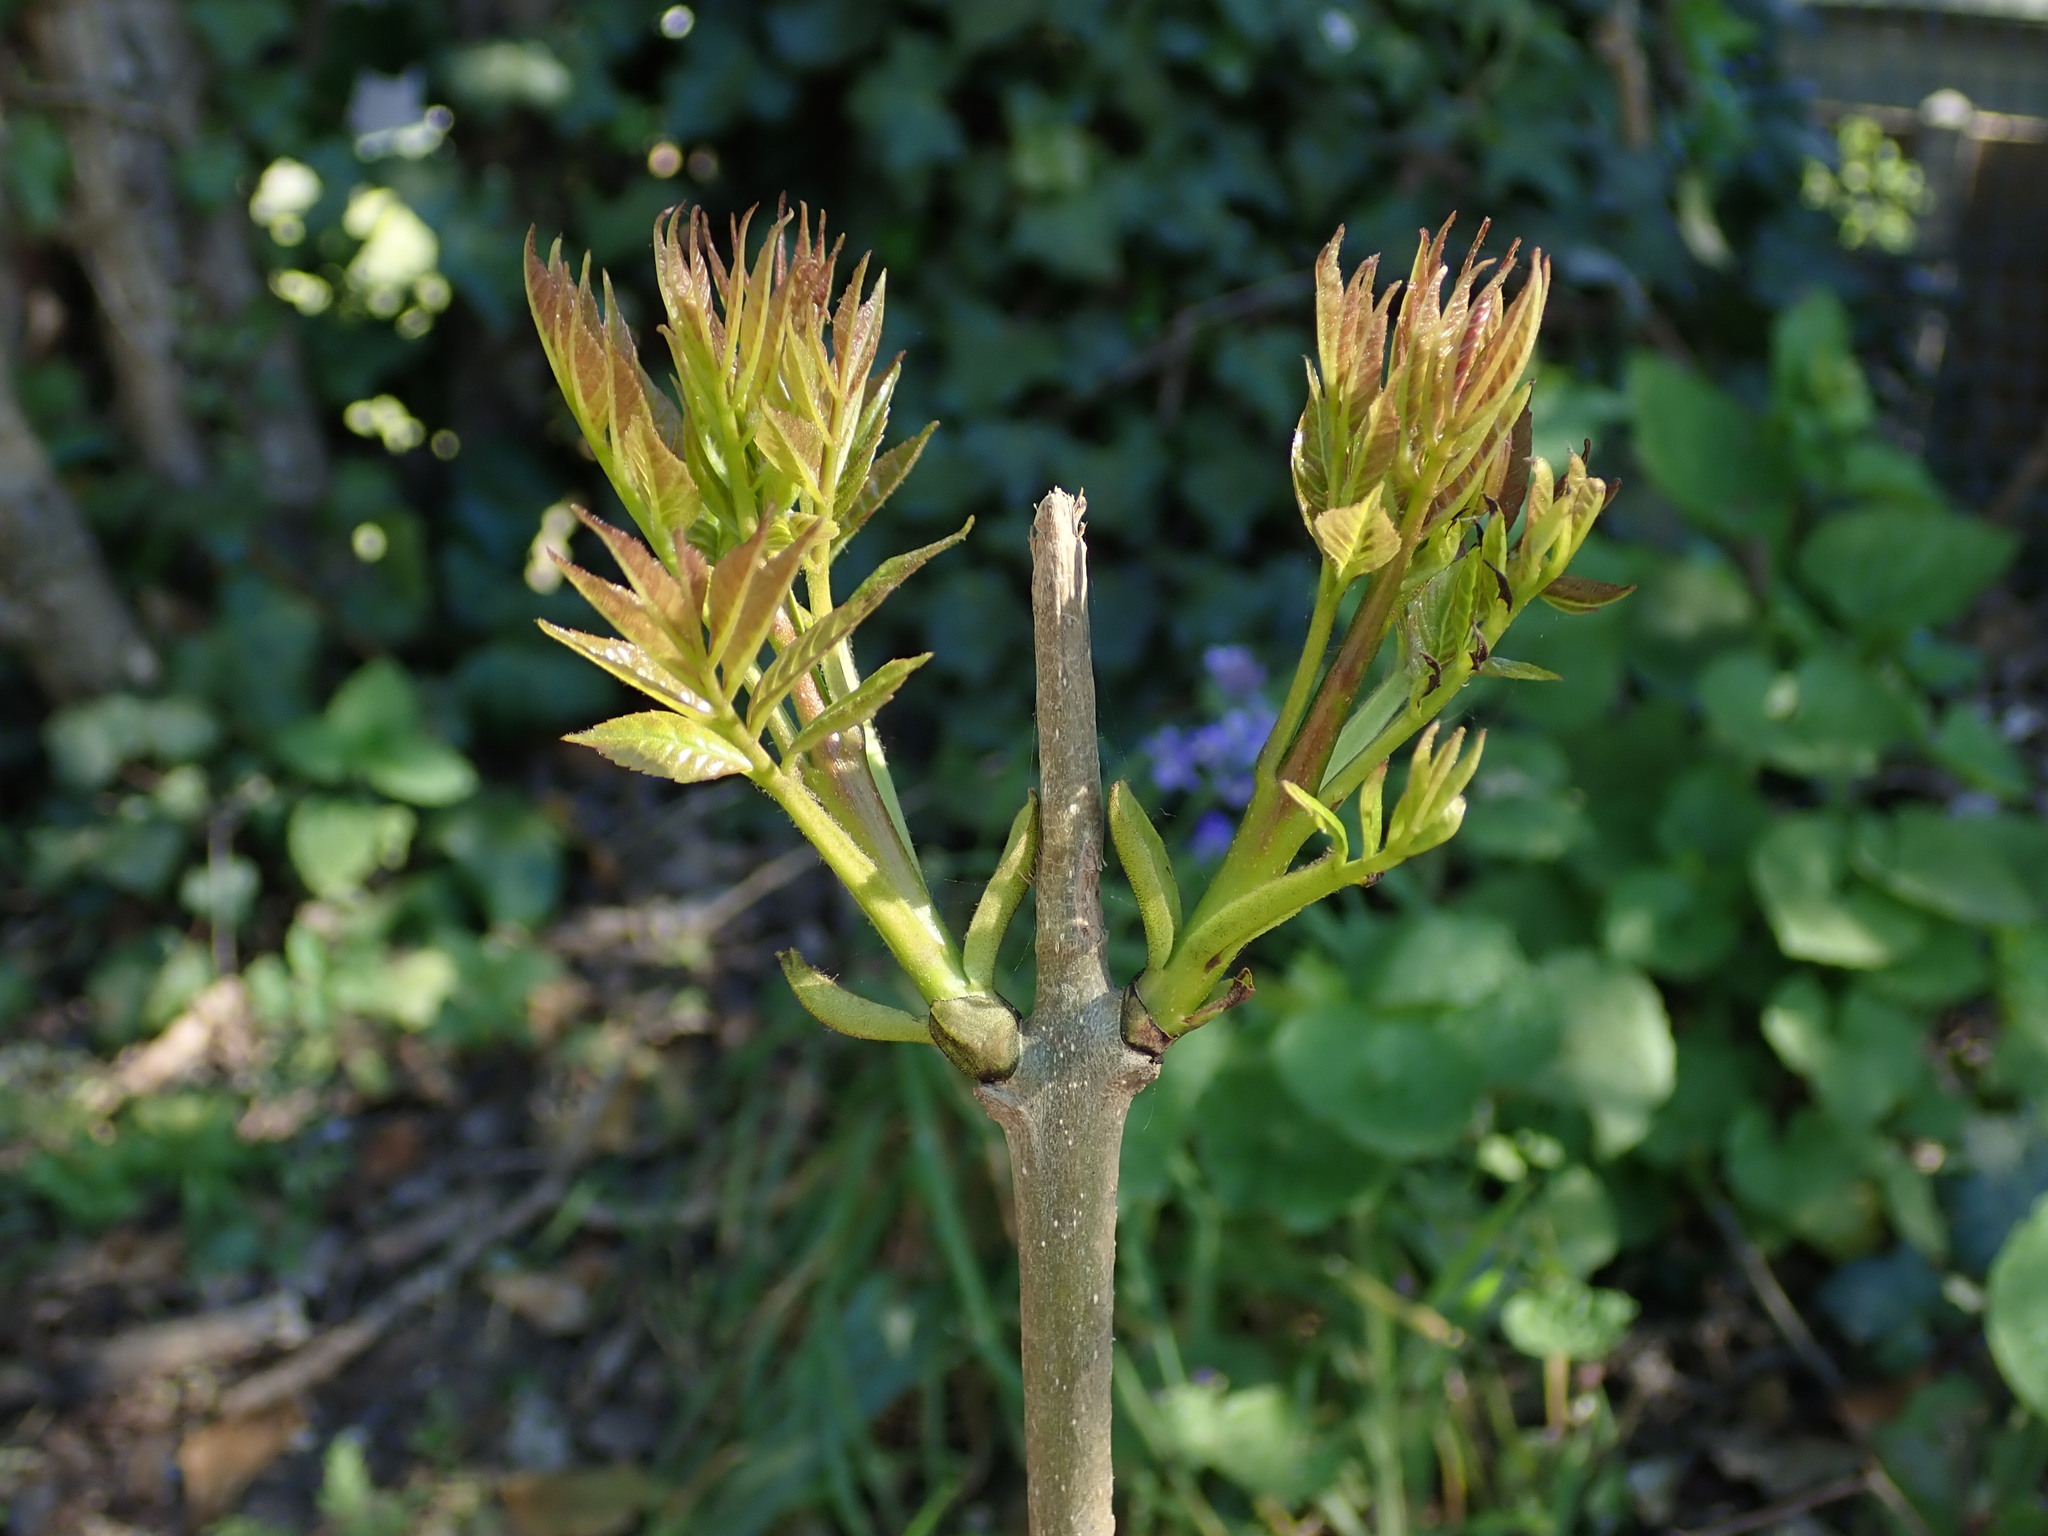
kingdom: Plantae
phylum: Tracheophyta
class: Magnoliopsida
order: Lamiales
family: Oleaceae
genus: Fraxinus
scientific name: Fraxinus excelsior
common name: European ash
